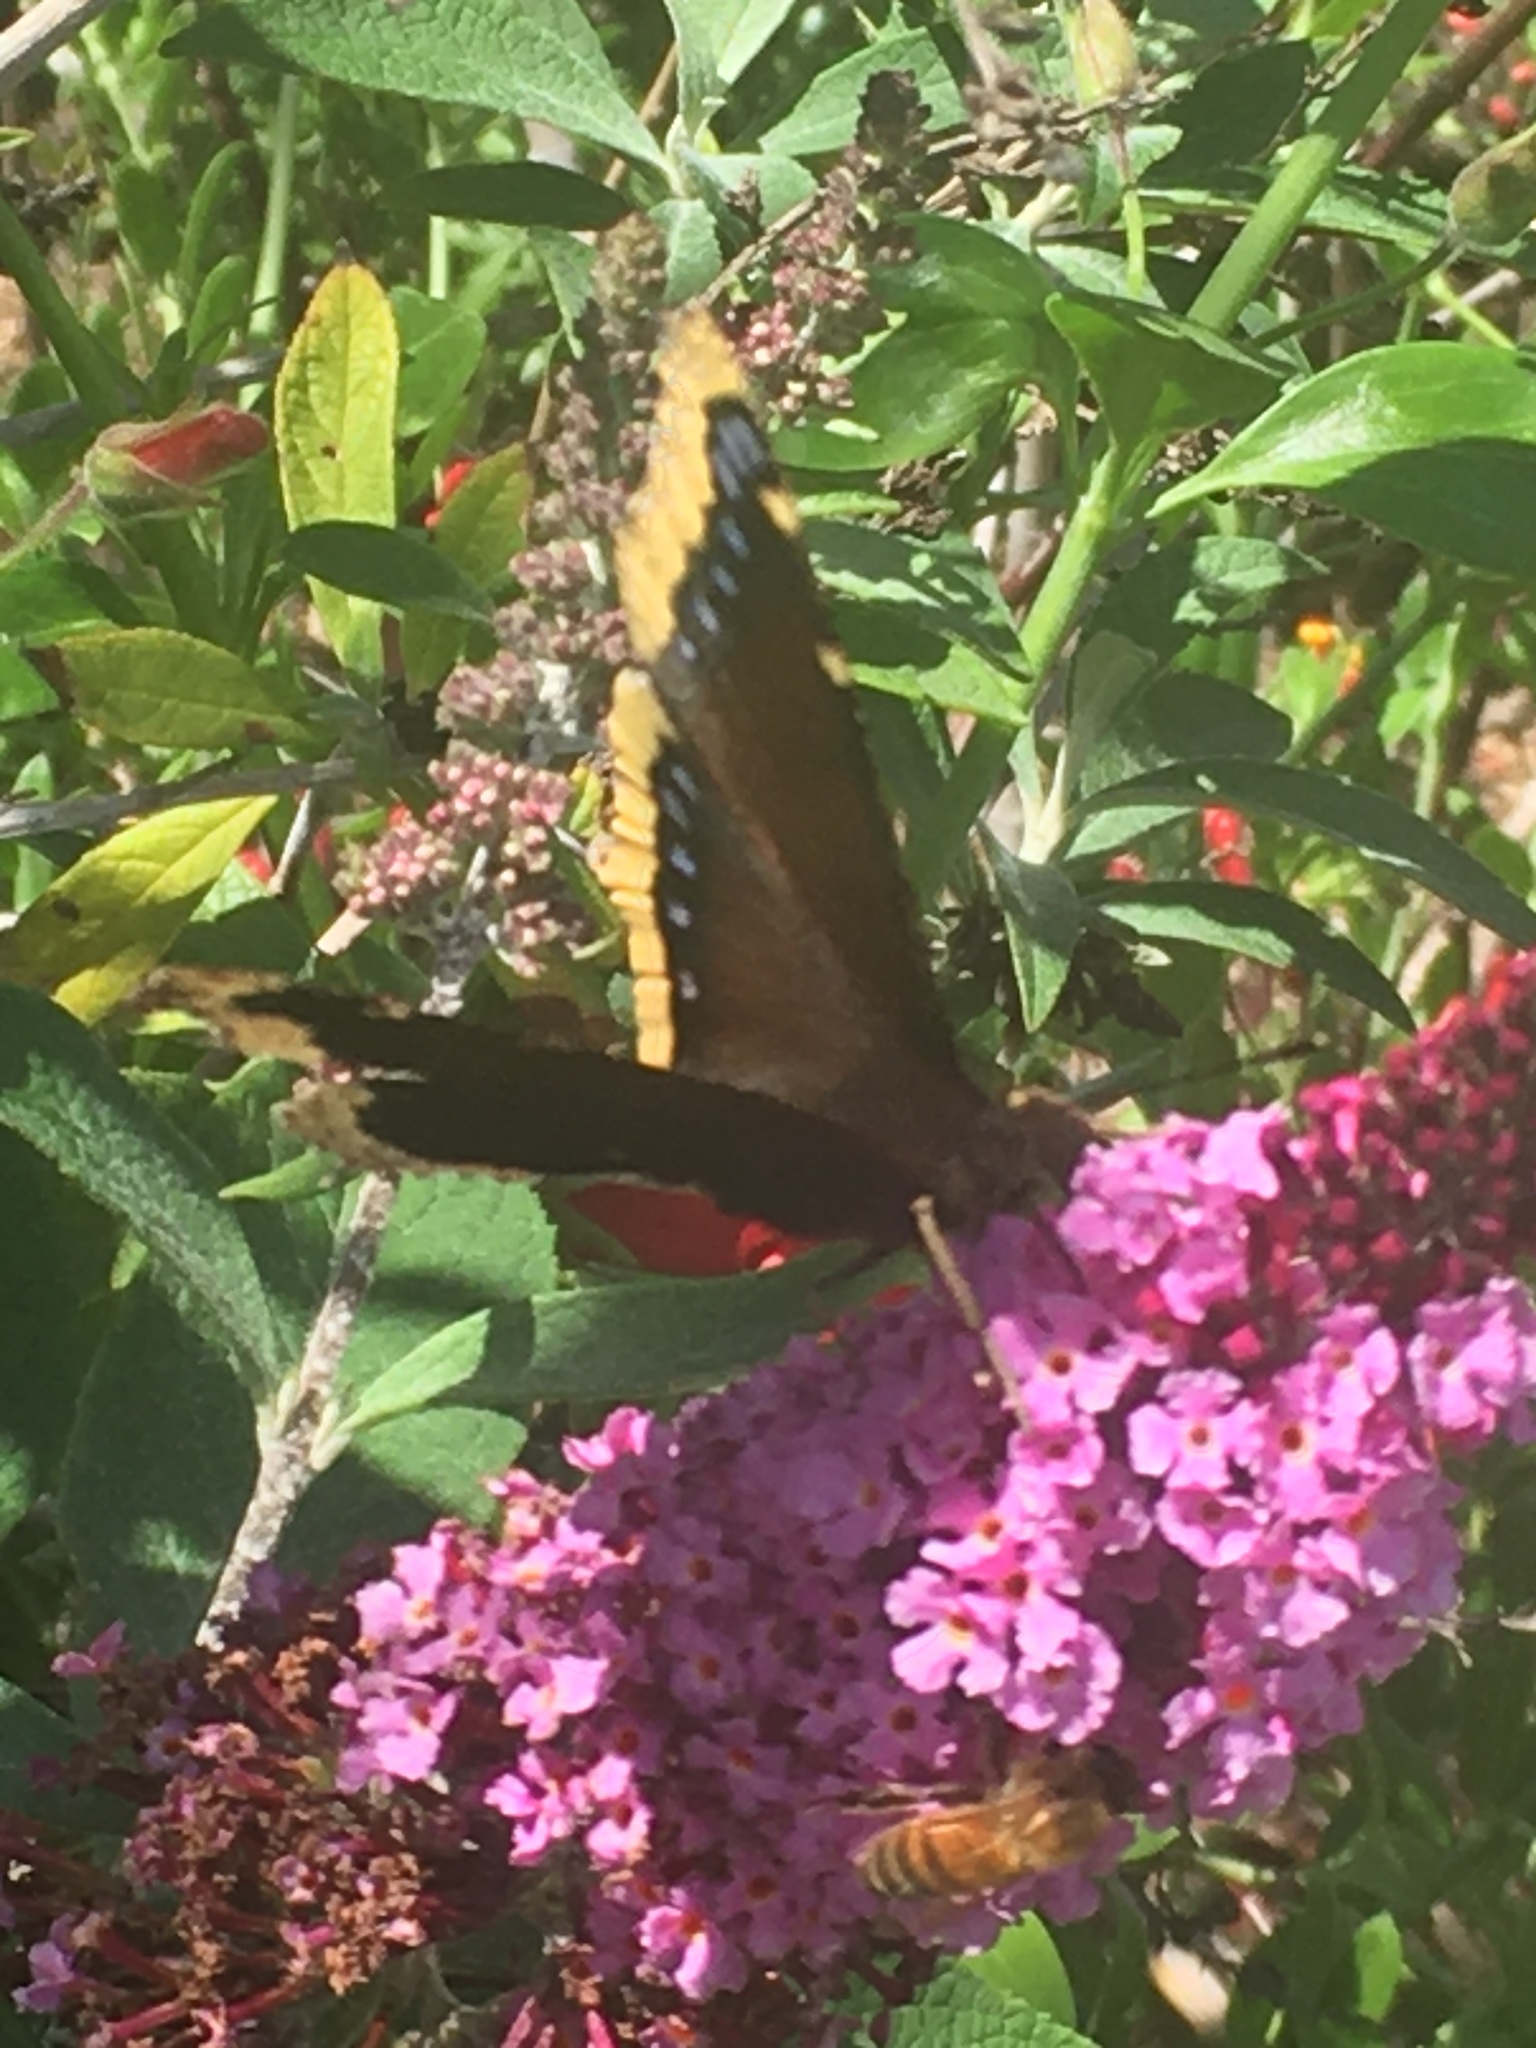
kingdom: Animalia
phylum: Arthropoda
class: Insecta
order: Lepidoptera
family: Nymphalidae
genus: Nymphalis
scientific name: Nymphalis antiopa
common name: Camberwell beauty
